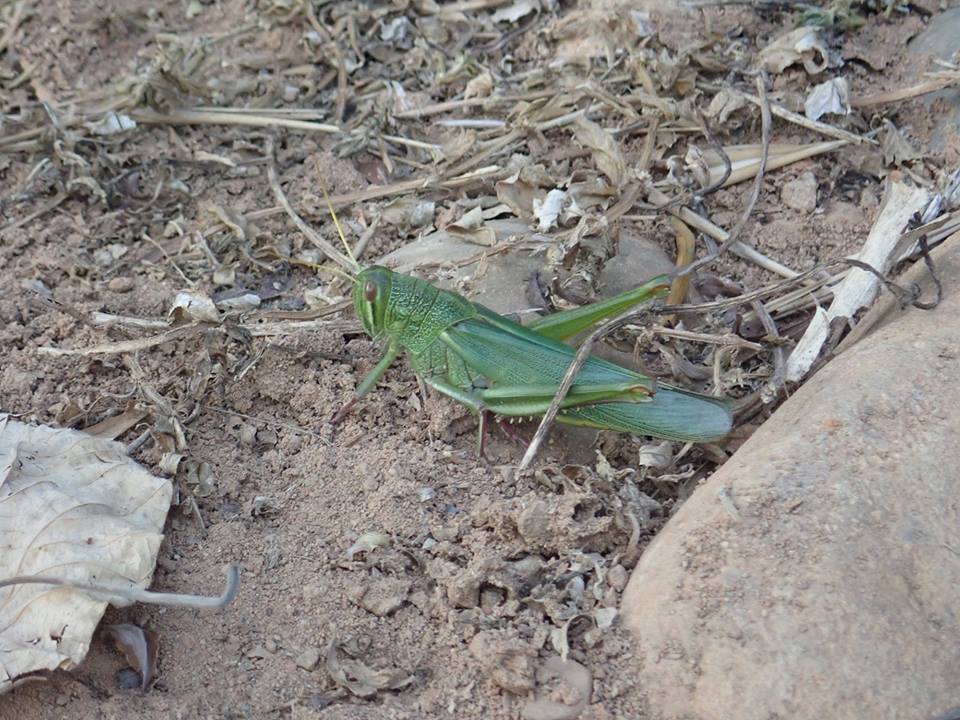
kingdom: Animalia
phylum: Arthropoda
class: Insecta
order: Orthoptera
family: Acrididae
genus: Chondracris
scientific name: Chondracris rosea
